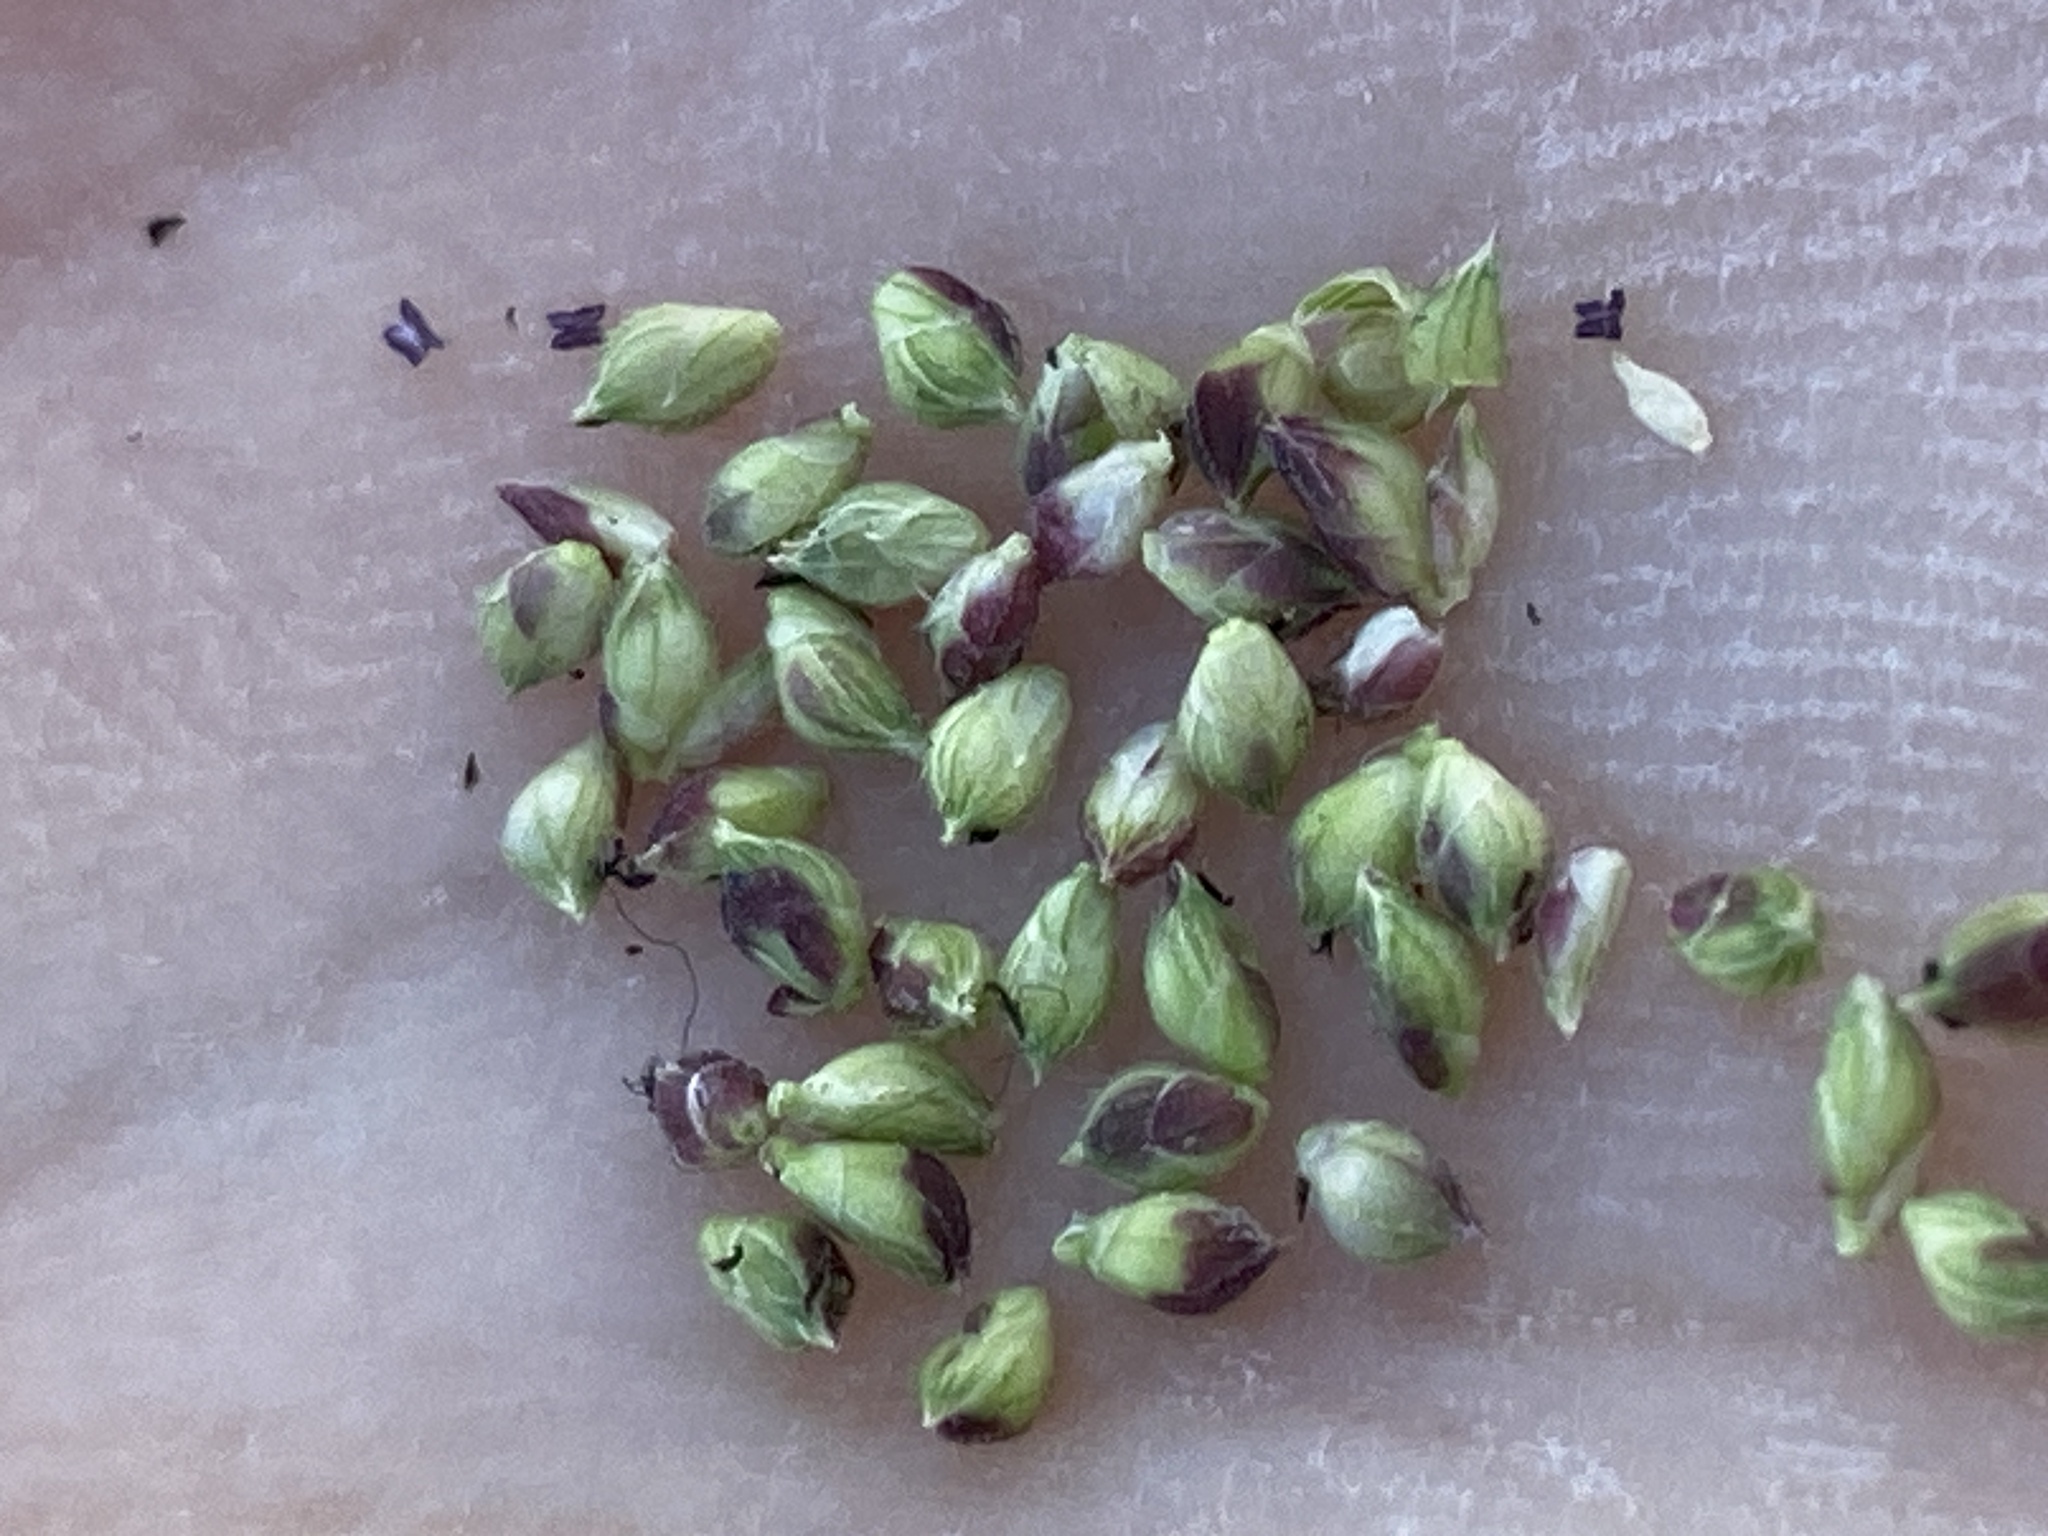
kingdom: Plantae
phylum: Tracheophyta
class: Liliopsida
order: Poales
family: Poaceae
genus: Echinochloa
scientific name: Echinochloa colonum
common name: Jungle rice
